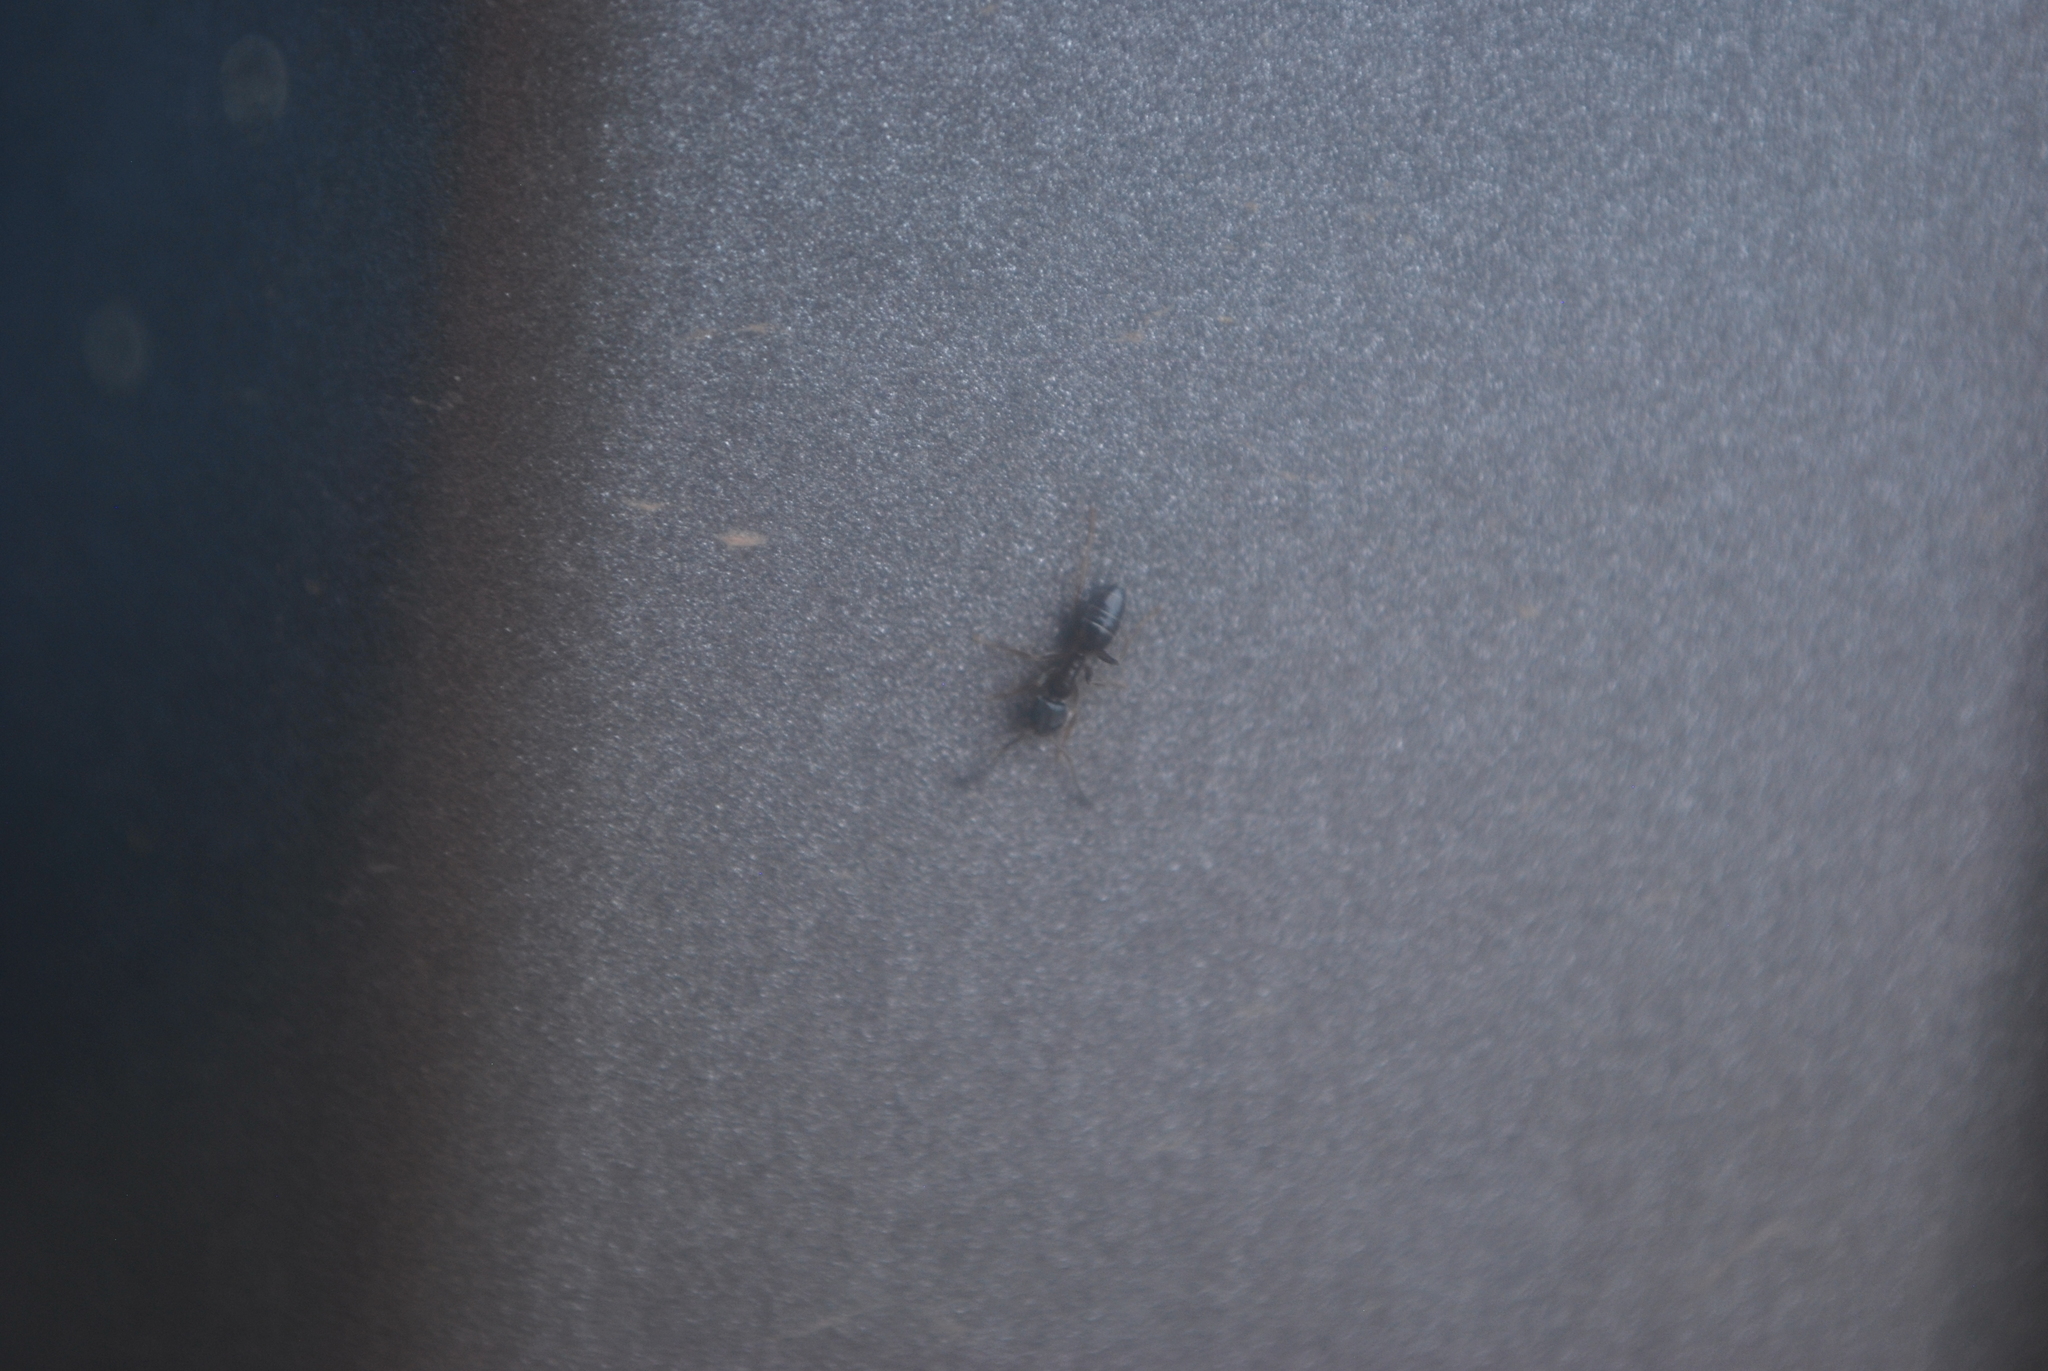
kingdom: Animalia
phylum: Arthropoda
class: Insecta
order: Hymenoptera
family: Formicidae
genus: Tapinoma
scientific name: Tapinoma sessile
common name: Odorous house ant
